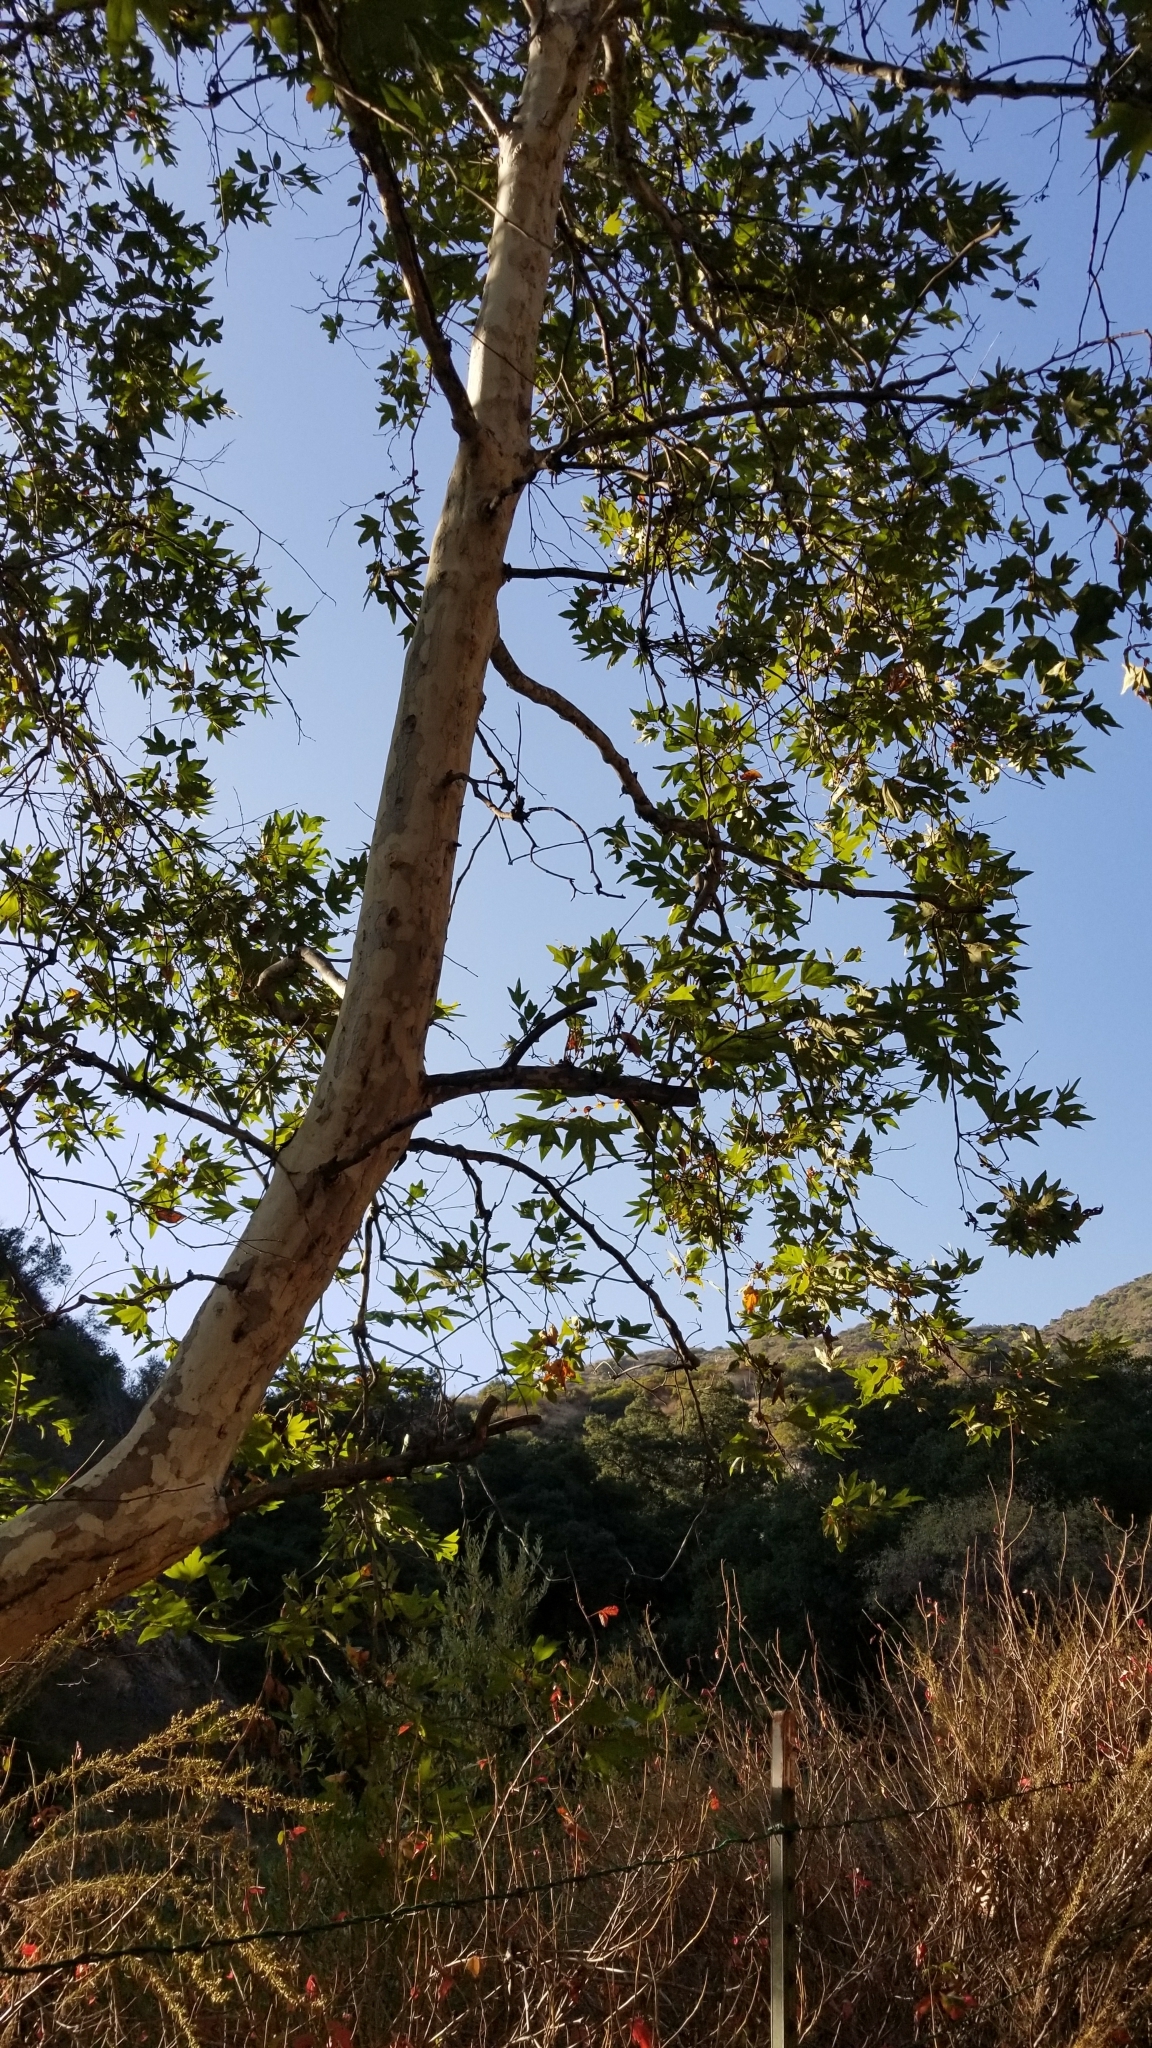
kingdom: Plantae
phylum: Tracheophyta
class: Magnoliopsida
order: Proteales
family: Platanaceae
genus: Platanus
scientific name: Platanus racemosa
